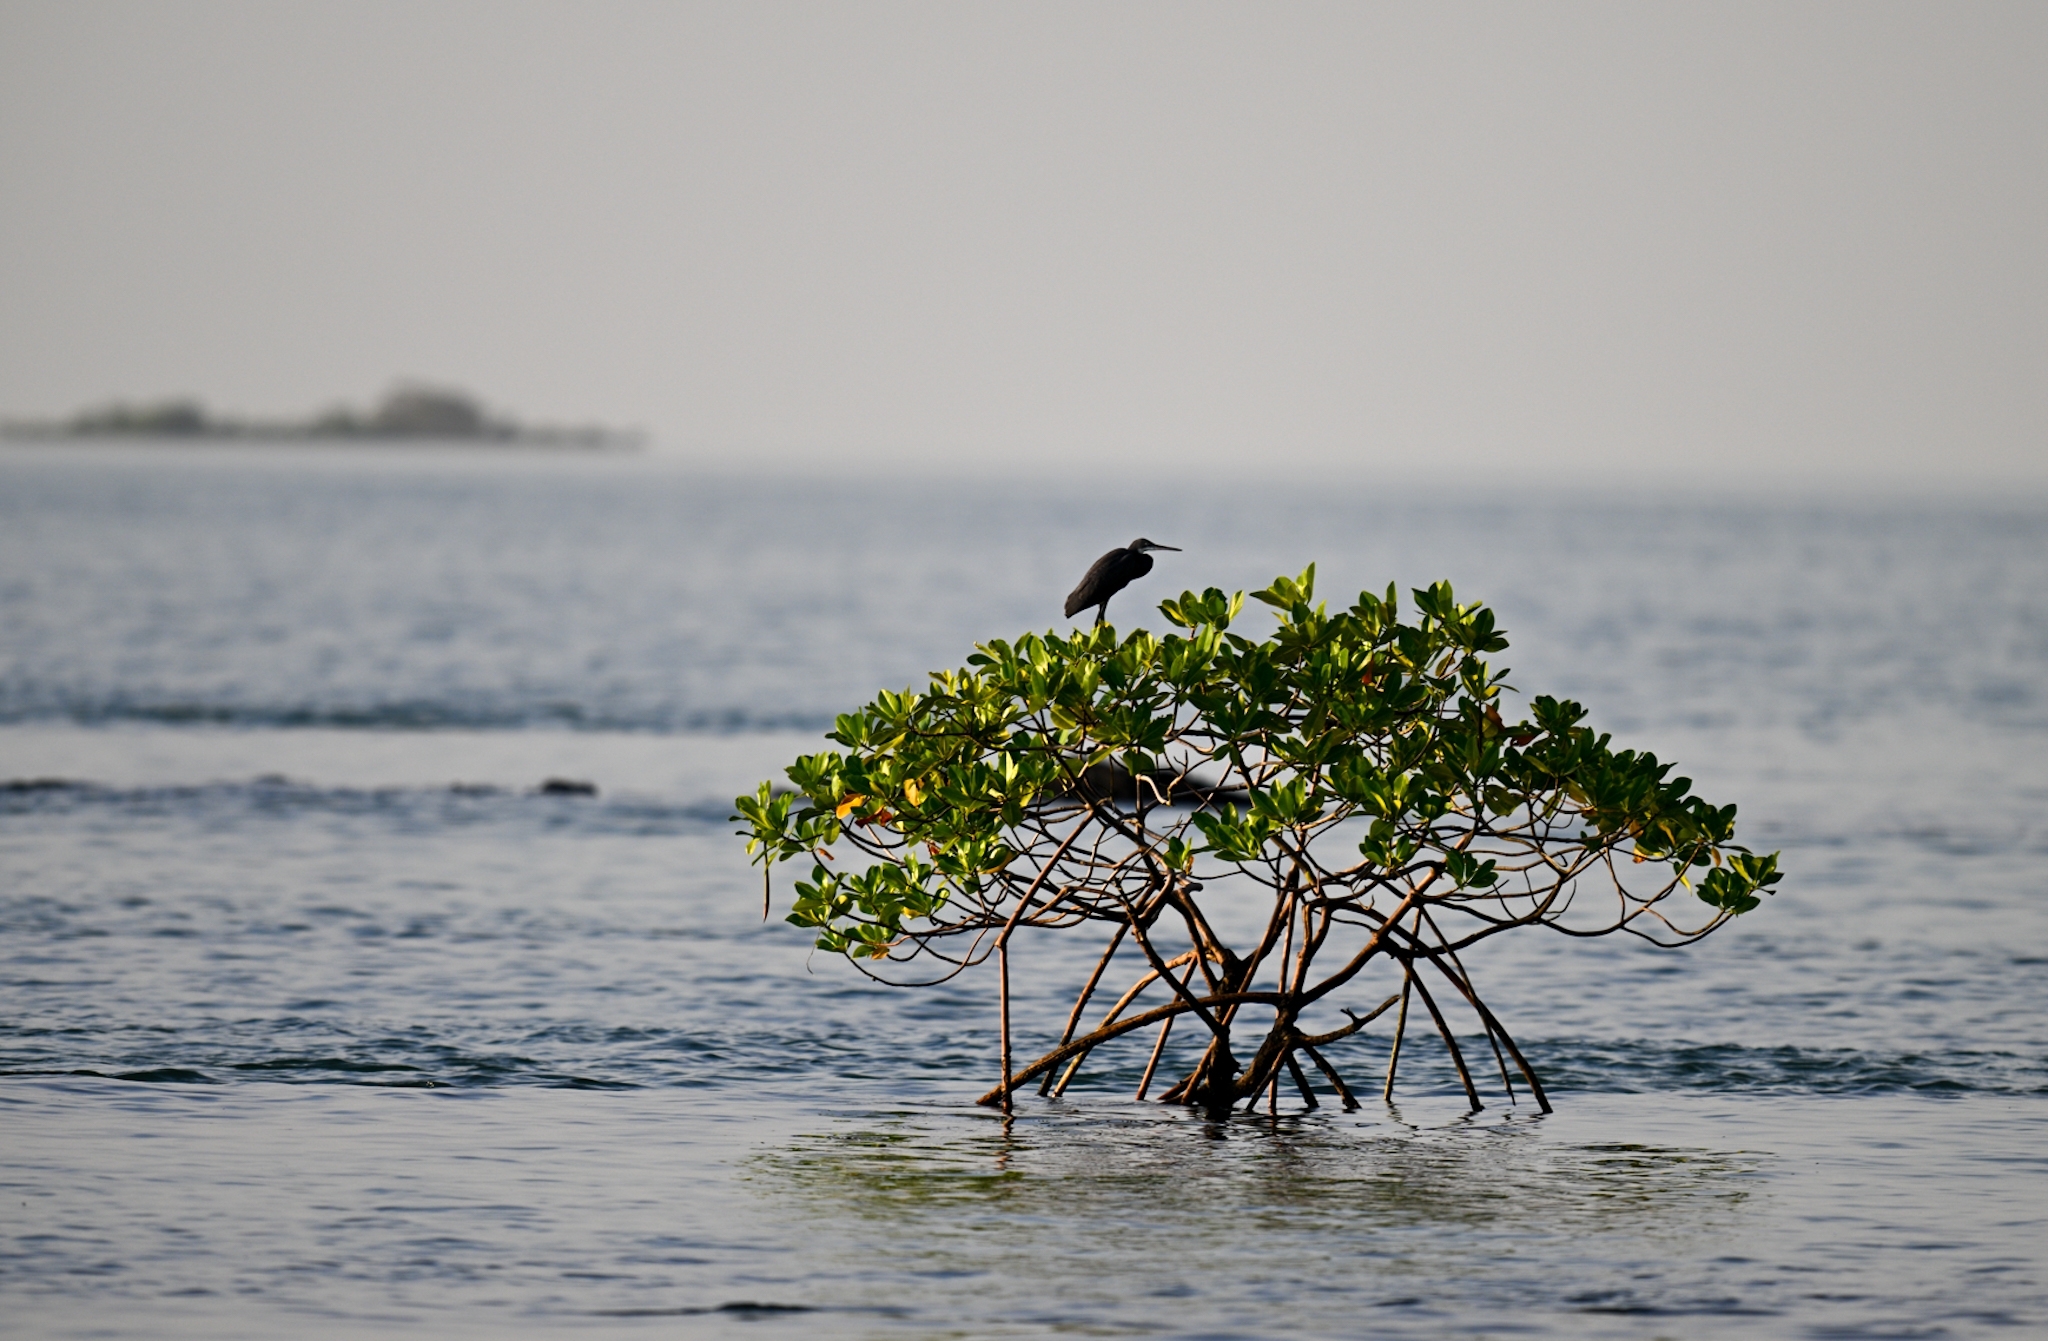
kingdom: Animalia
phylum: Chordata
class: Aves
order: Pelecaniformes
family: Ardeidae
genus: Egretta
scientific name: Egretta gularis
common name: Western reef-heron
